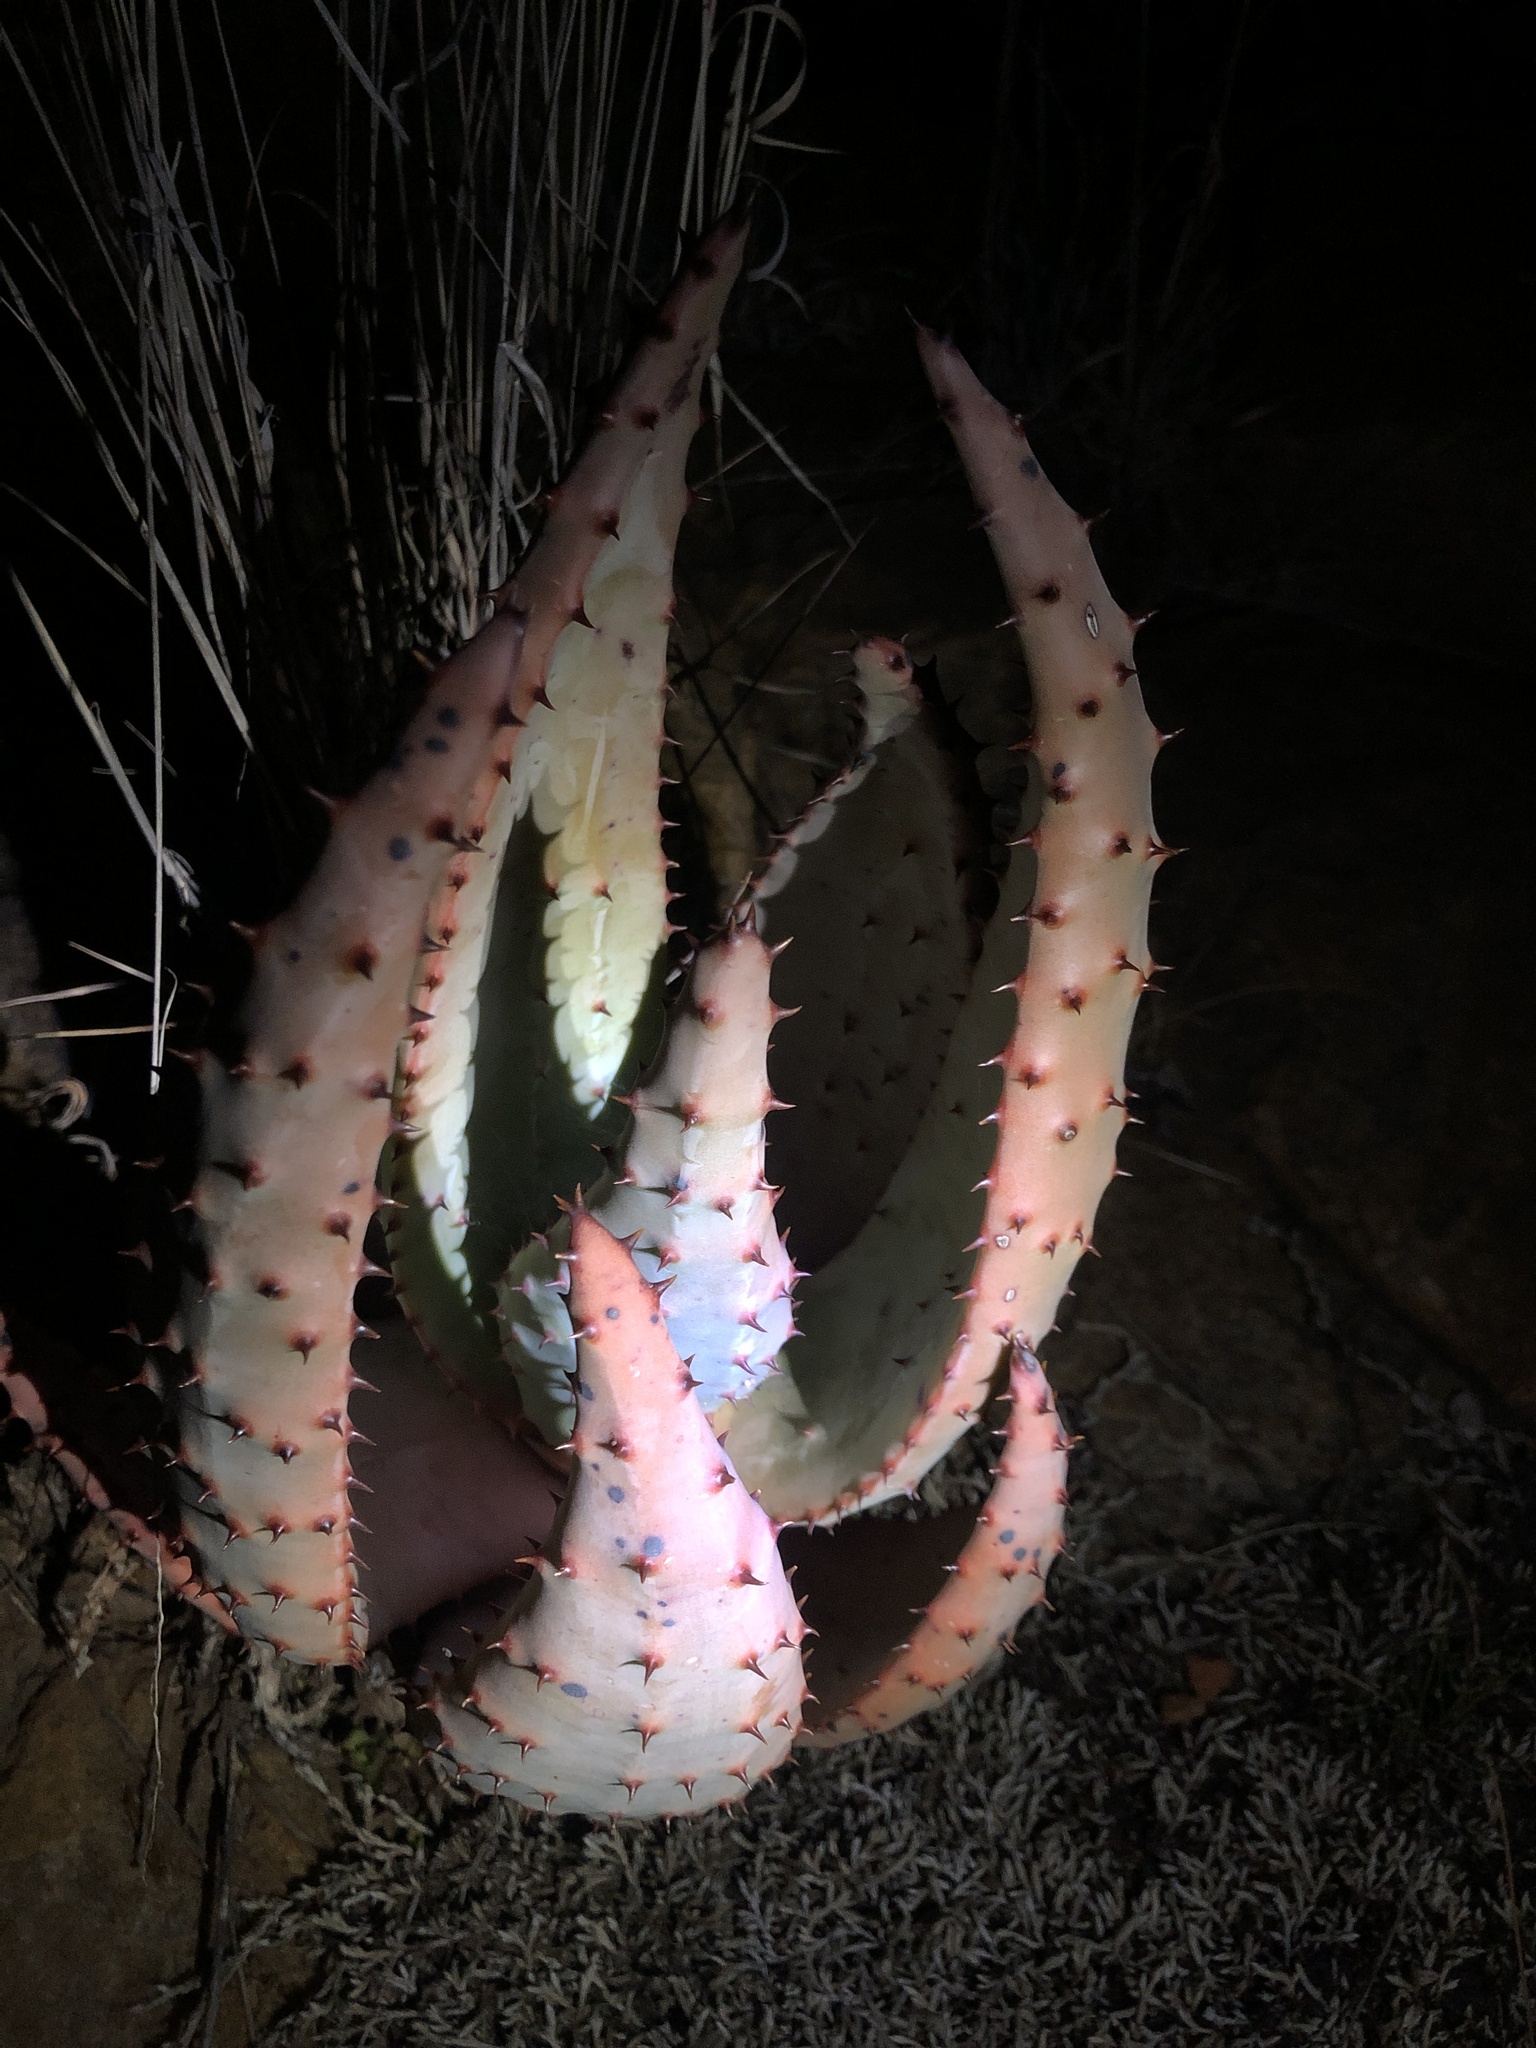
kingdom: Plantae
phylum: Tracheophyta
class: Liliopsida
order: Asparagales
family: Asphodelaceae
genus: Aloe
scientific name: Aloe marlothii
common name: Flat-flowered aloe
